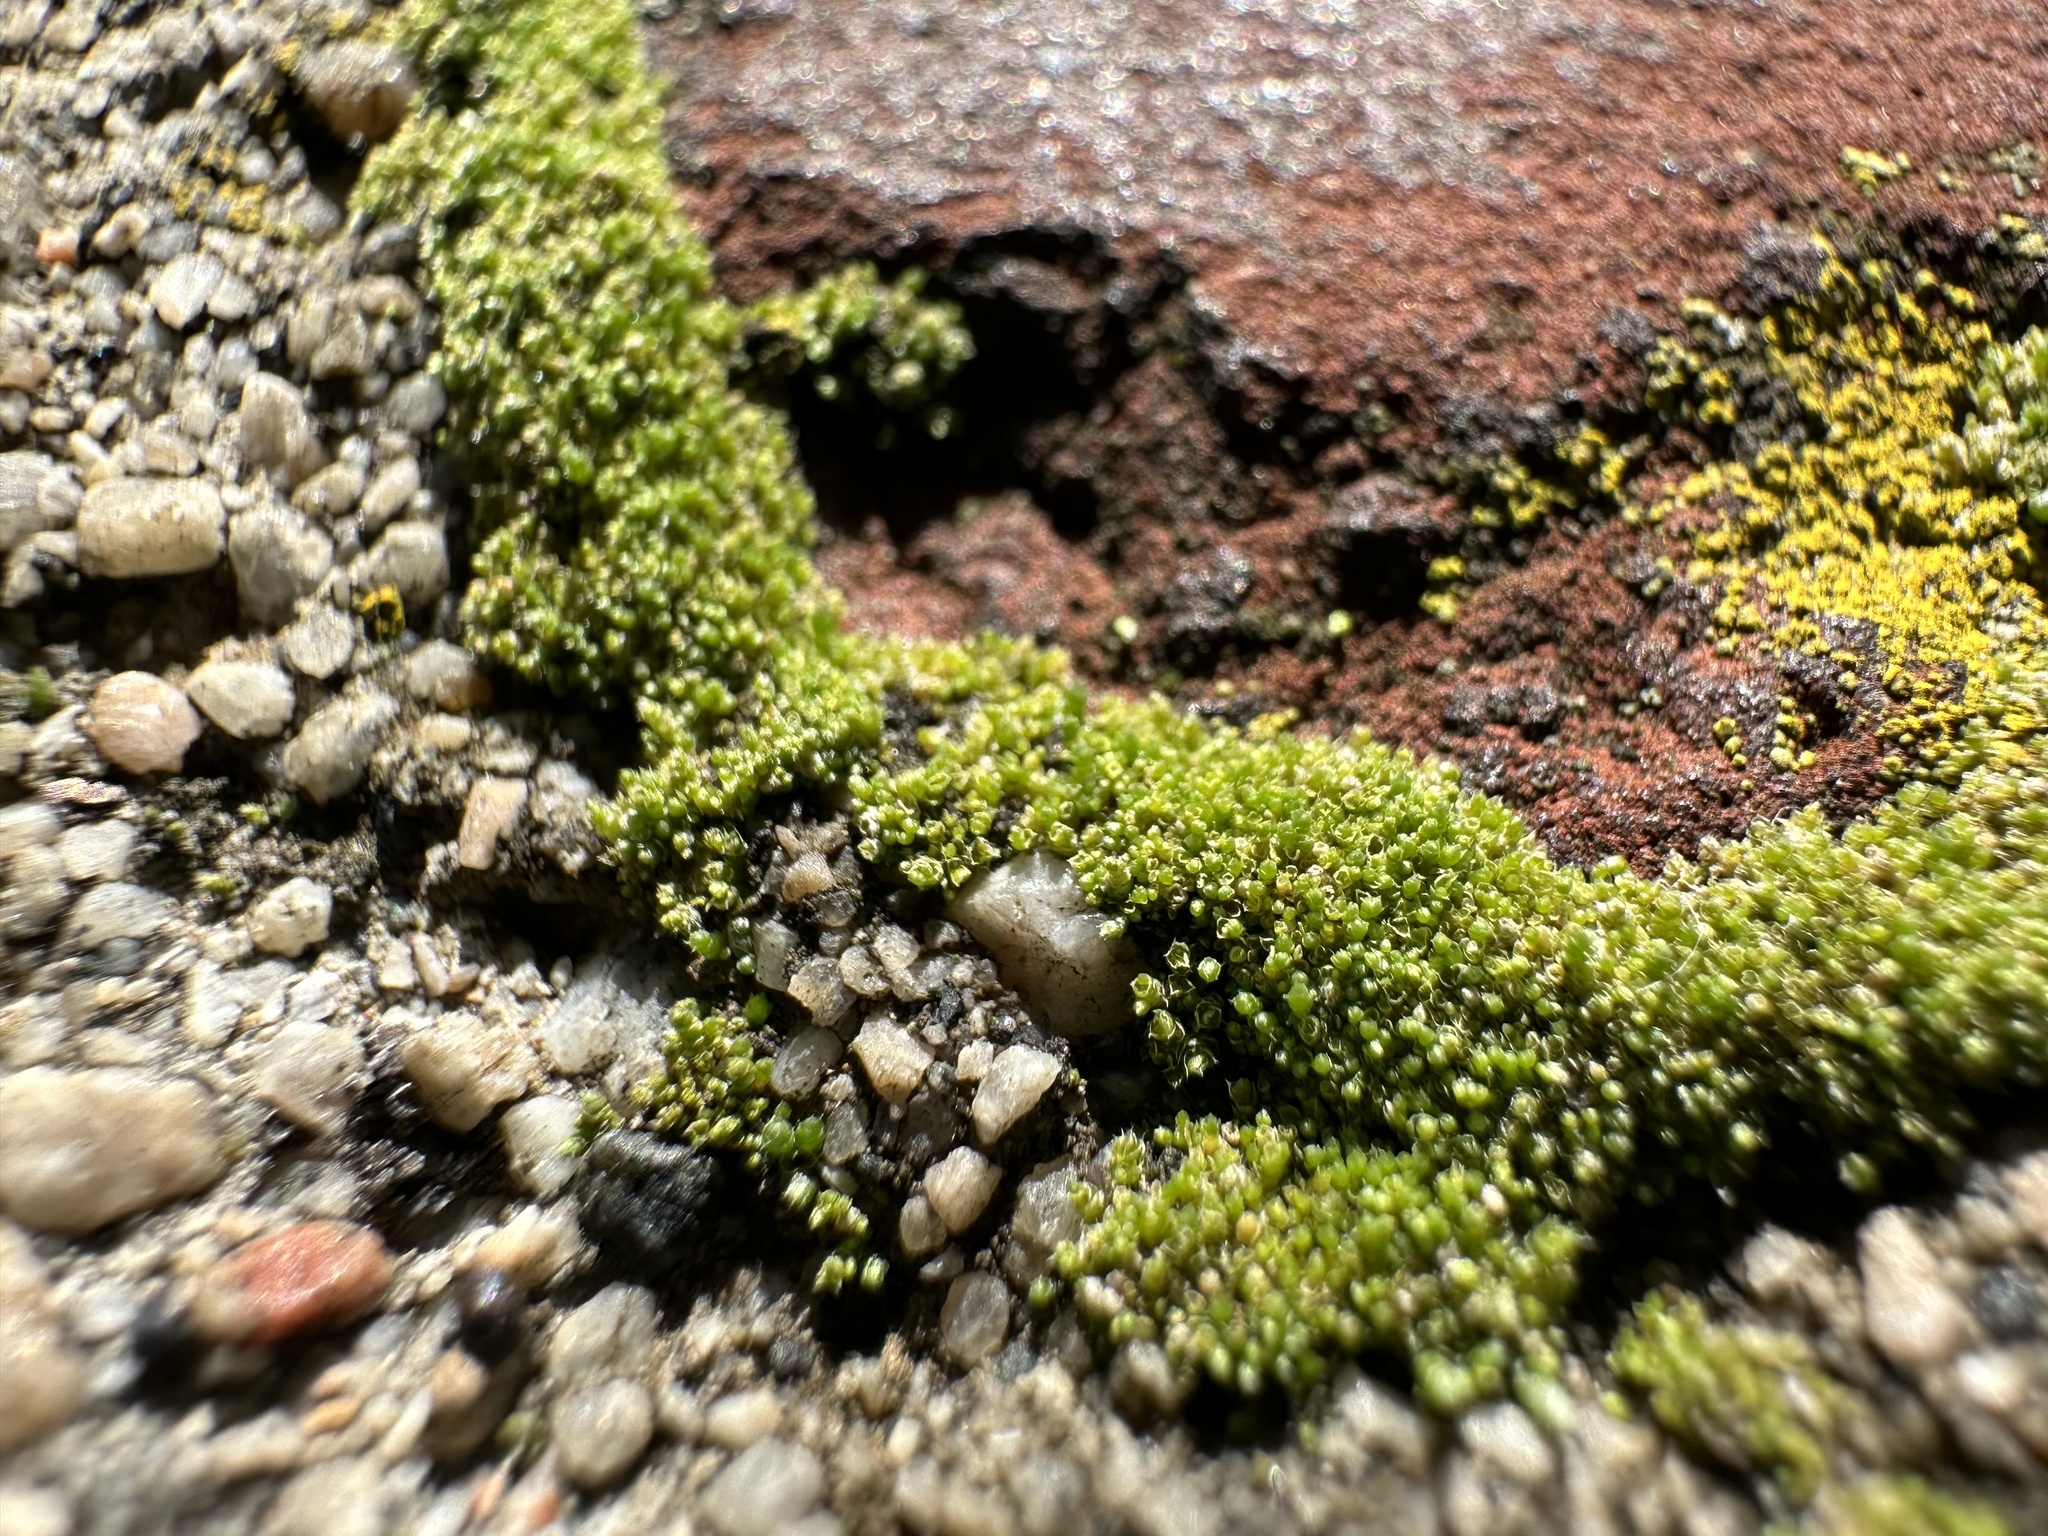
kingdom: Plantae
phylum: Bryophyta
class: Bryopsida
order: Bryales
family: Bryaceae
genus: Bryum
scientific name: Bryum argenteum
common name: Silver-moss
